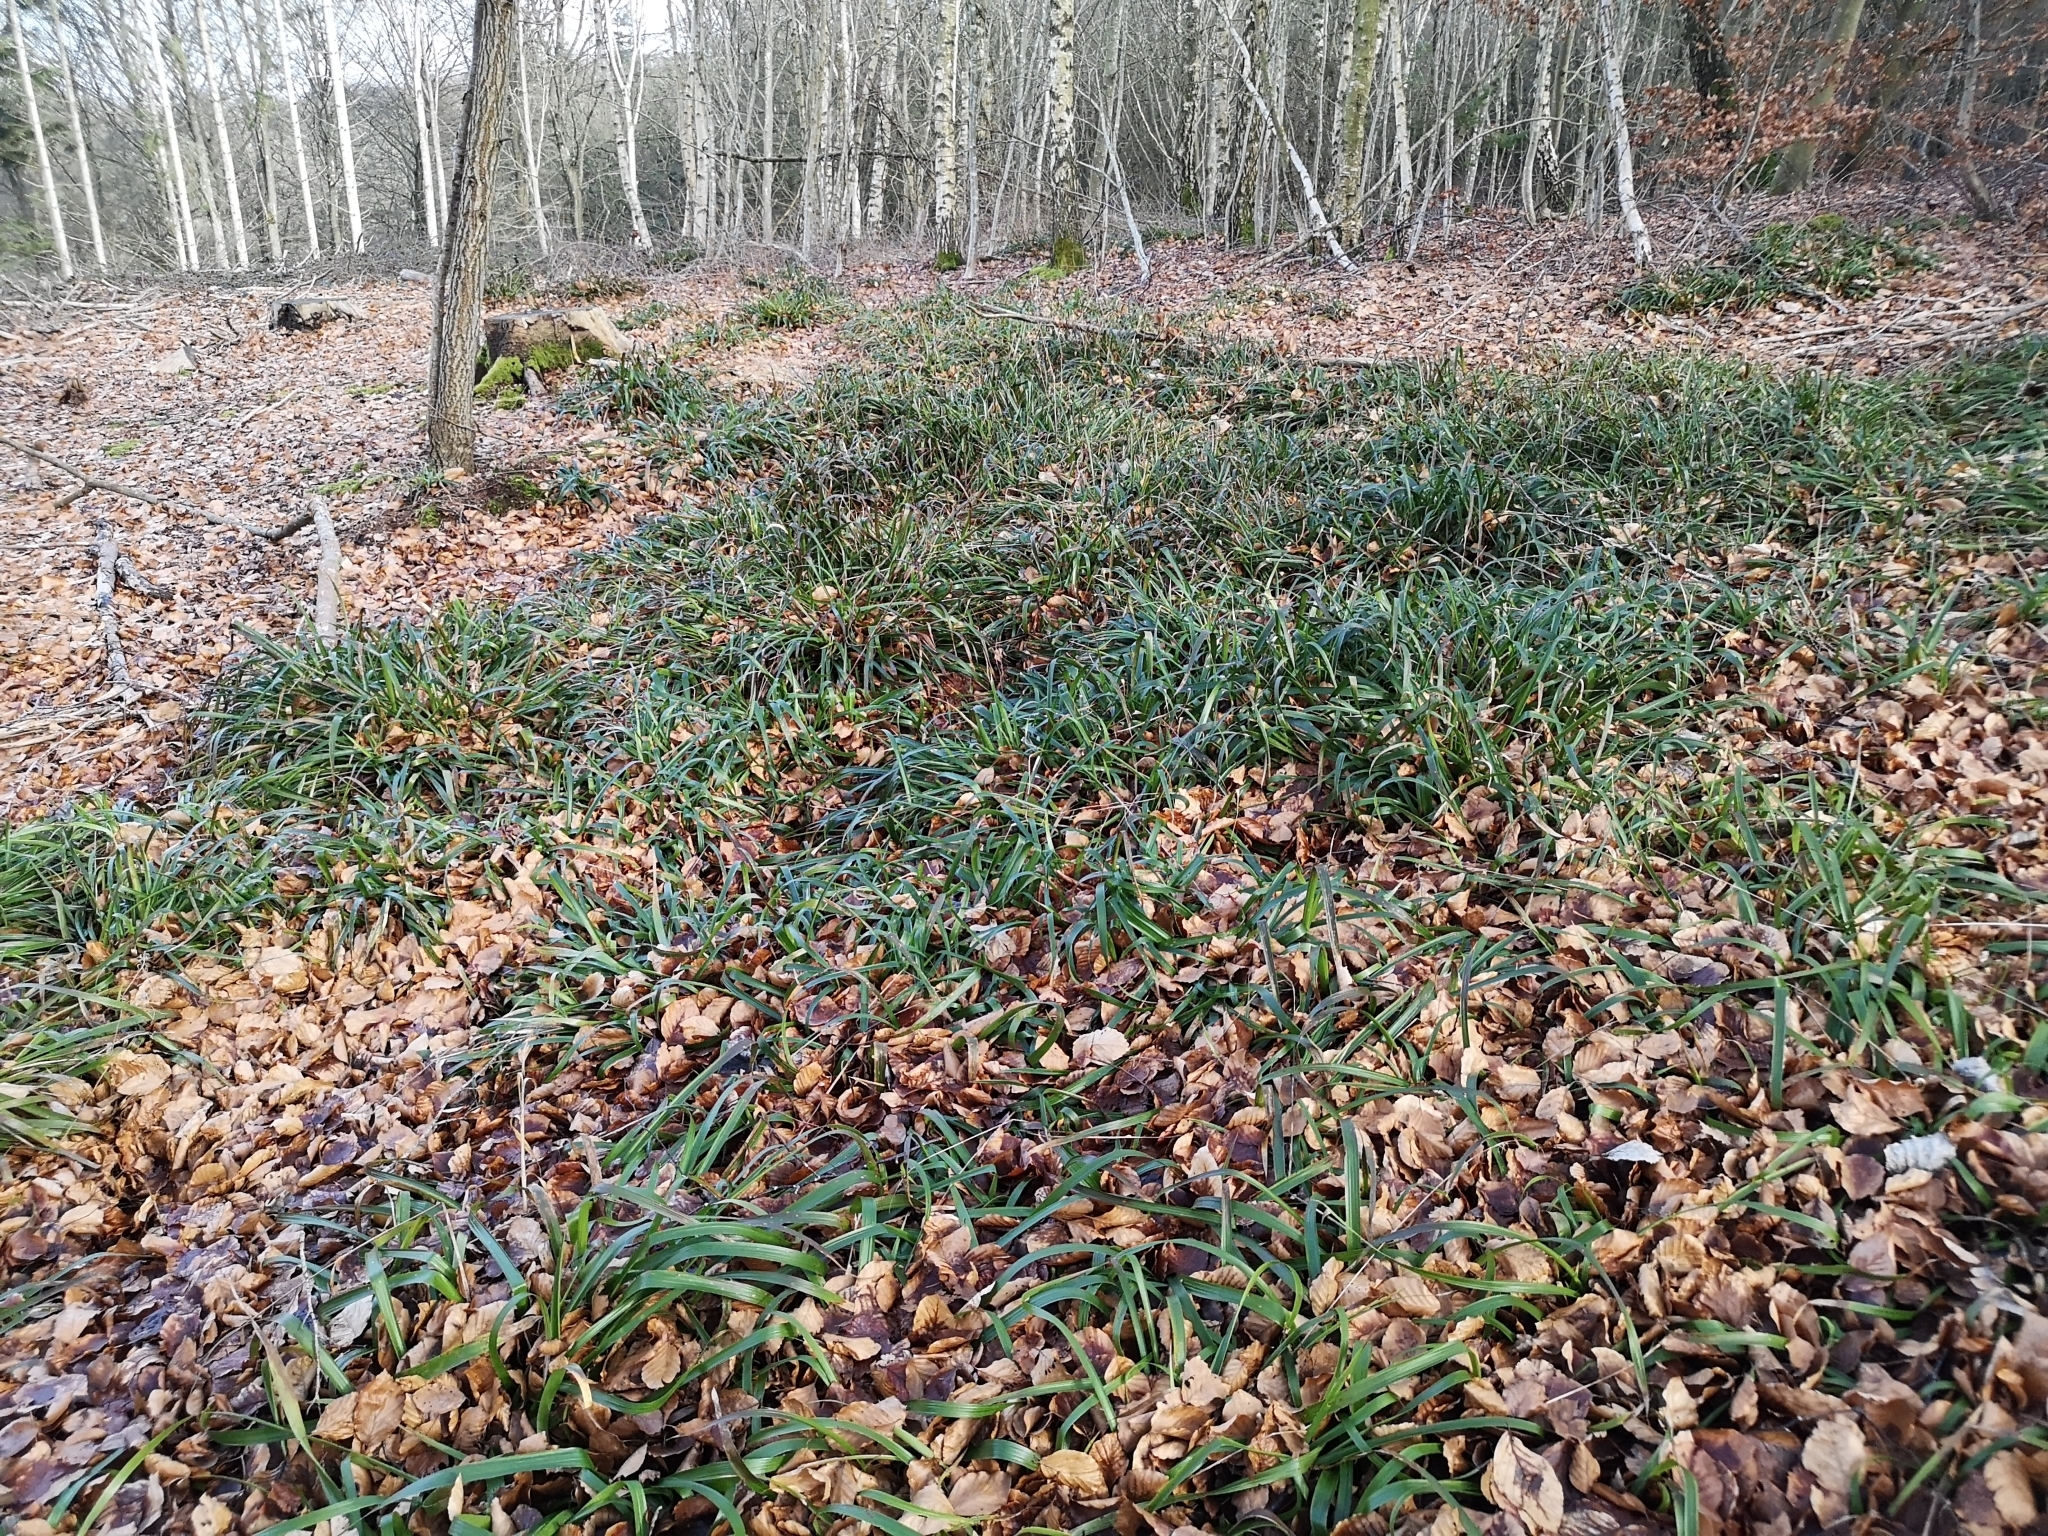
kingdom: Plantae
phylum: Tracheophyta
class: Liliopsida
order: Poales
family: Juncaceae
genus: Luzula
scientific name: Luzula sylvatica
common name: Great wood-rush
